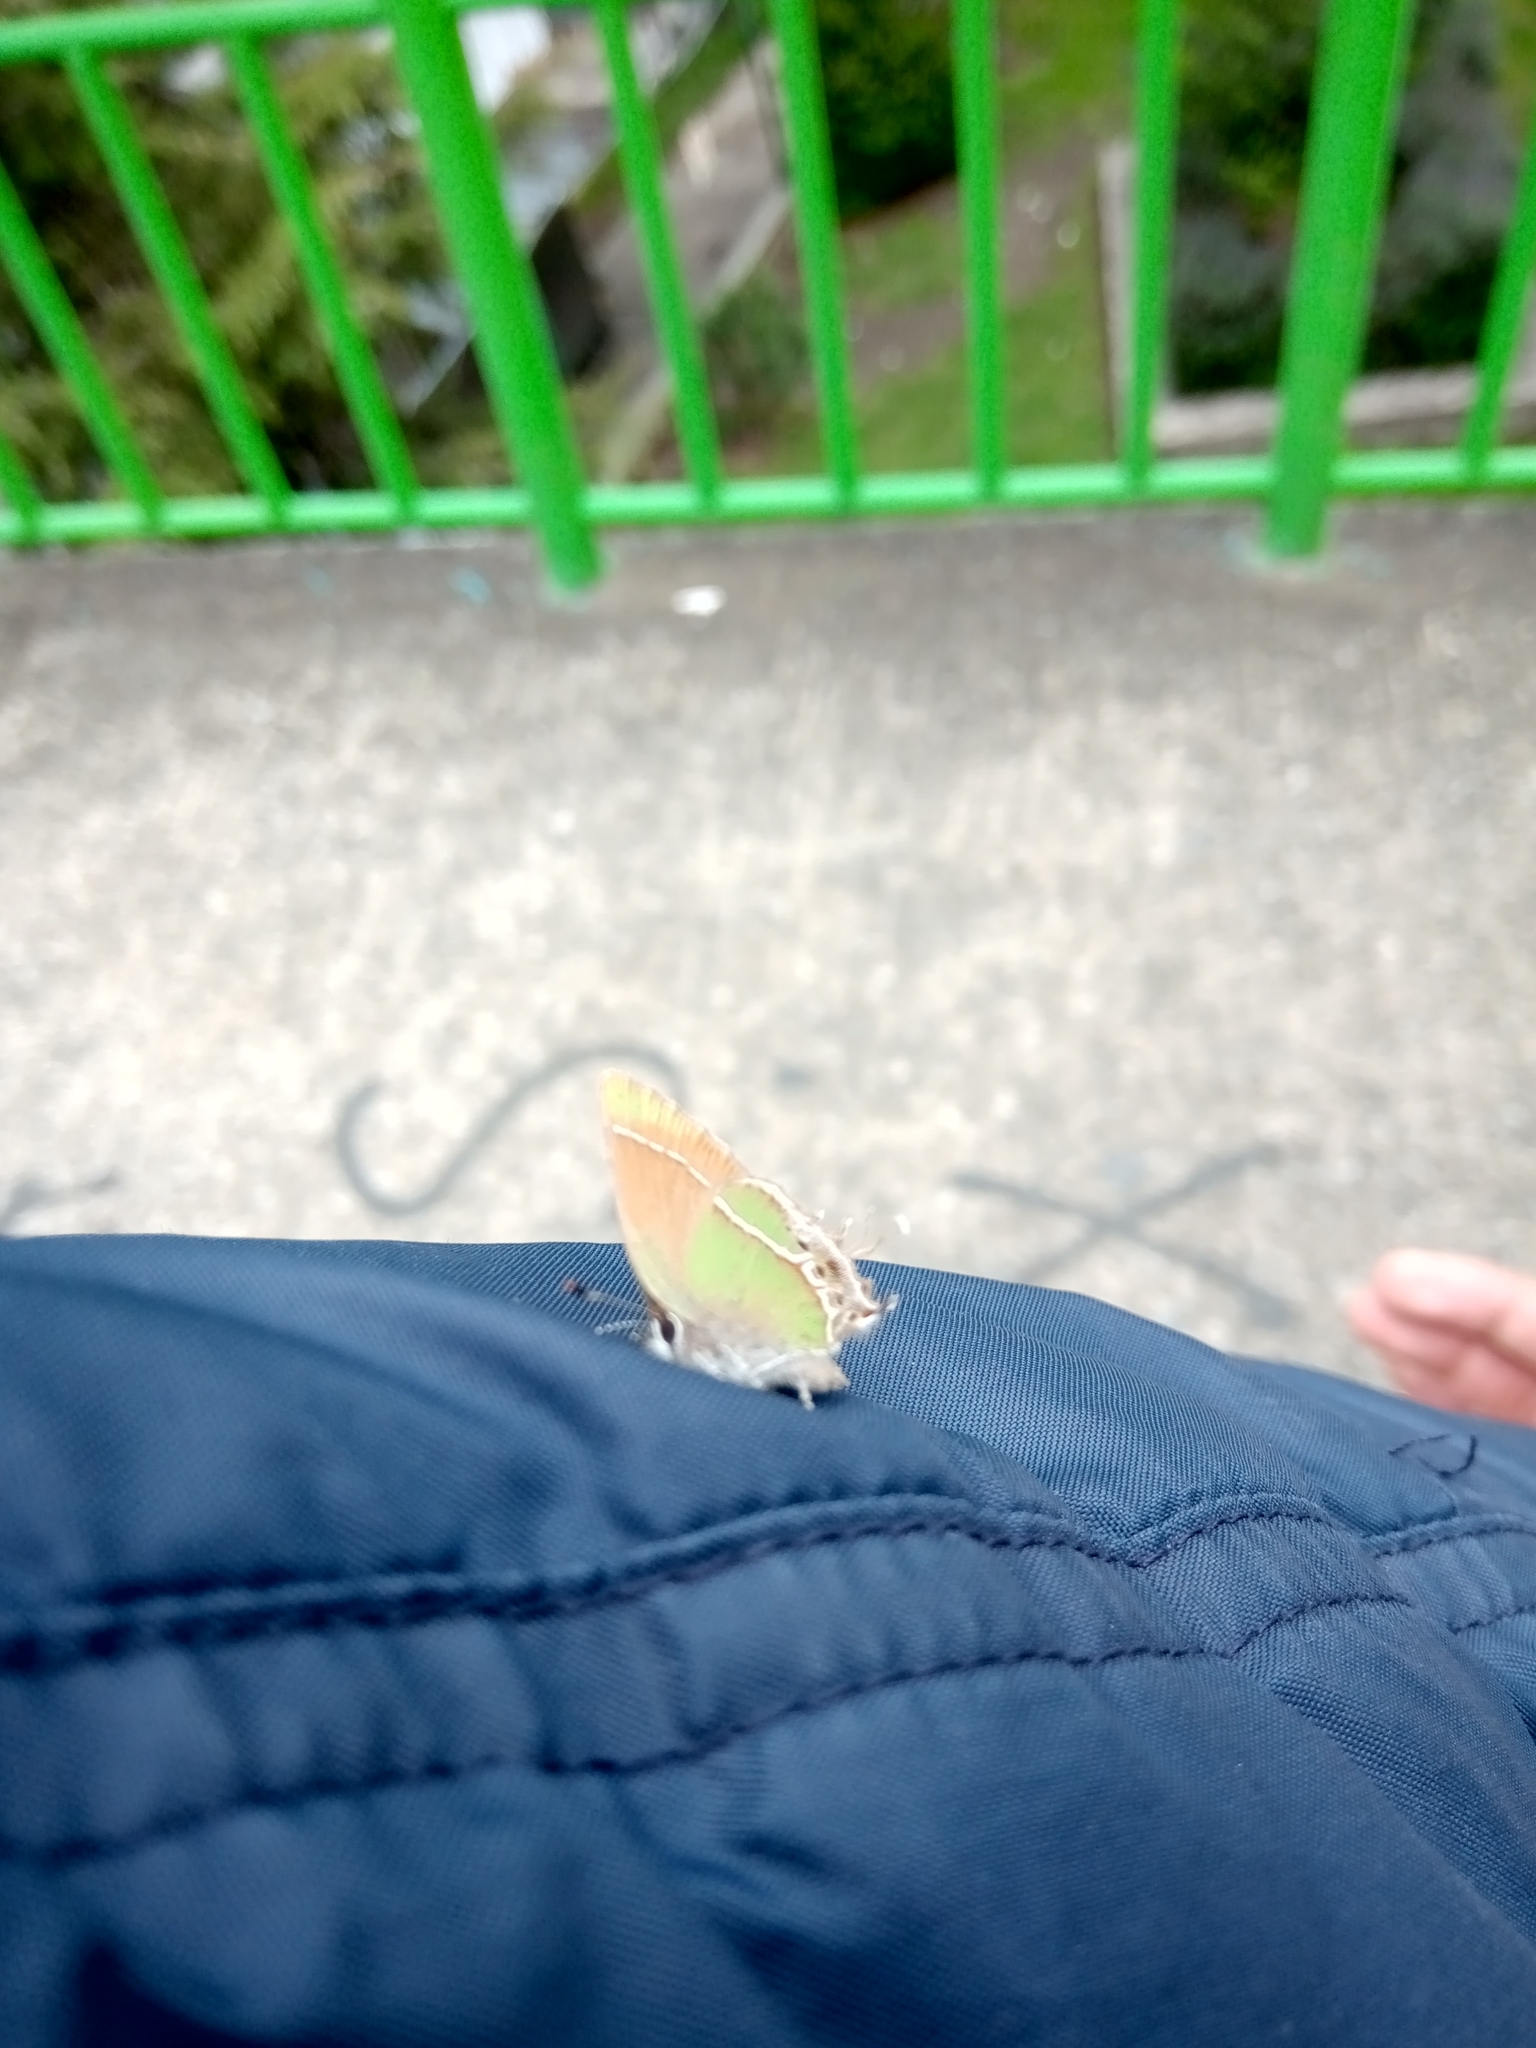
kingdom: Animalia
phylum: Arthropoda
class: Insecta
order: Lepidoptera
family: Lycaenidae
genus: Xamia
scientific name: Xamia xami
